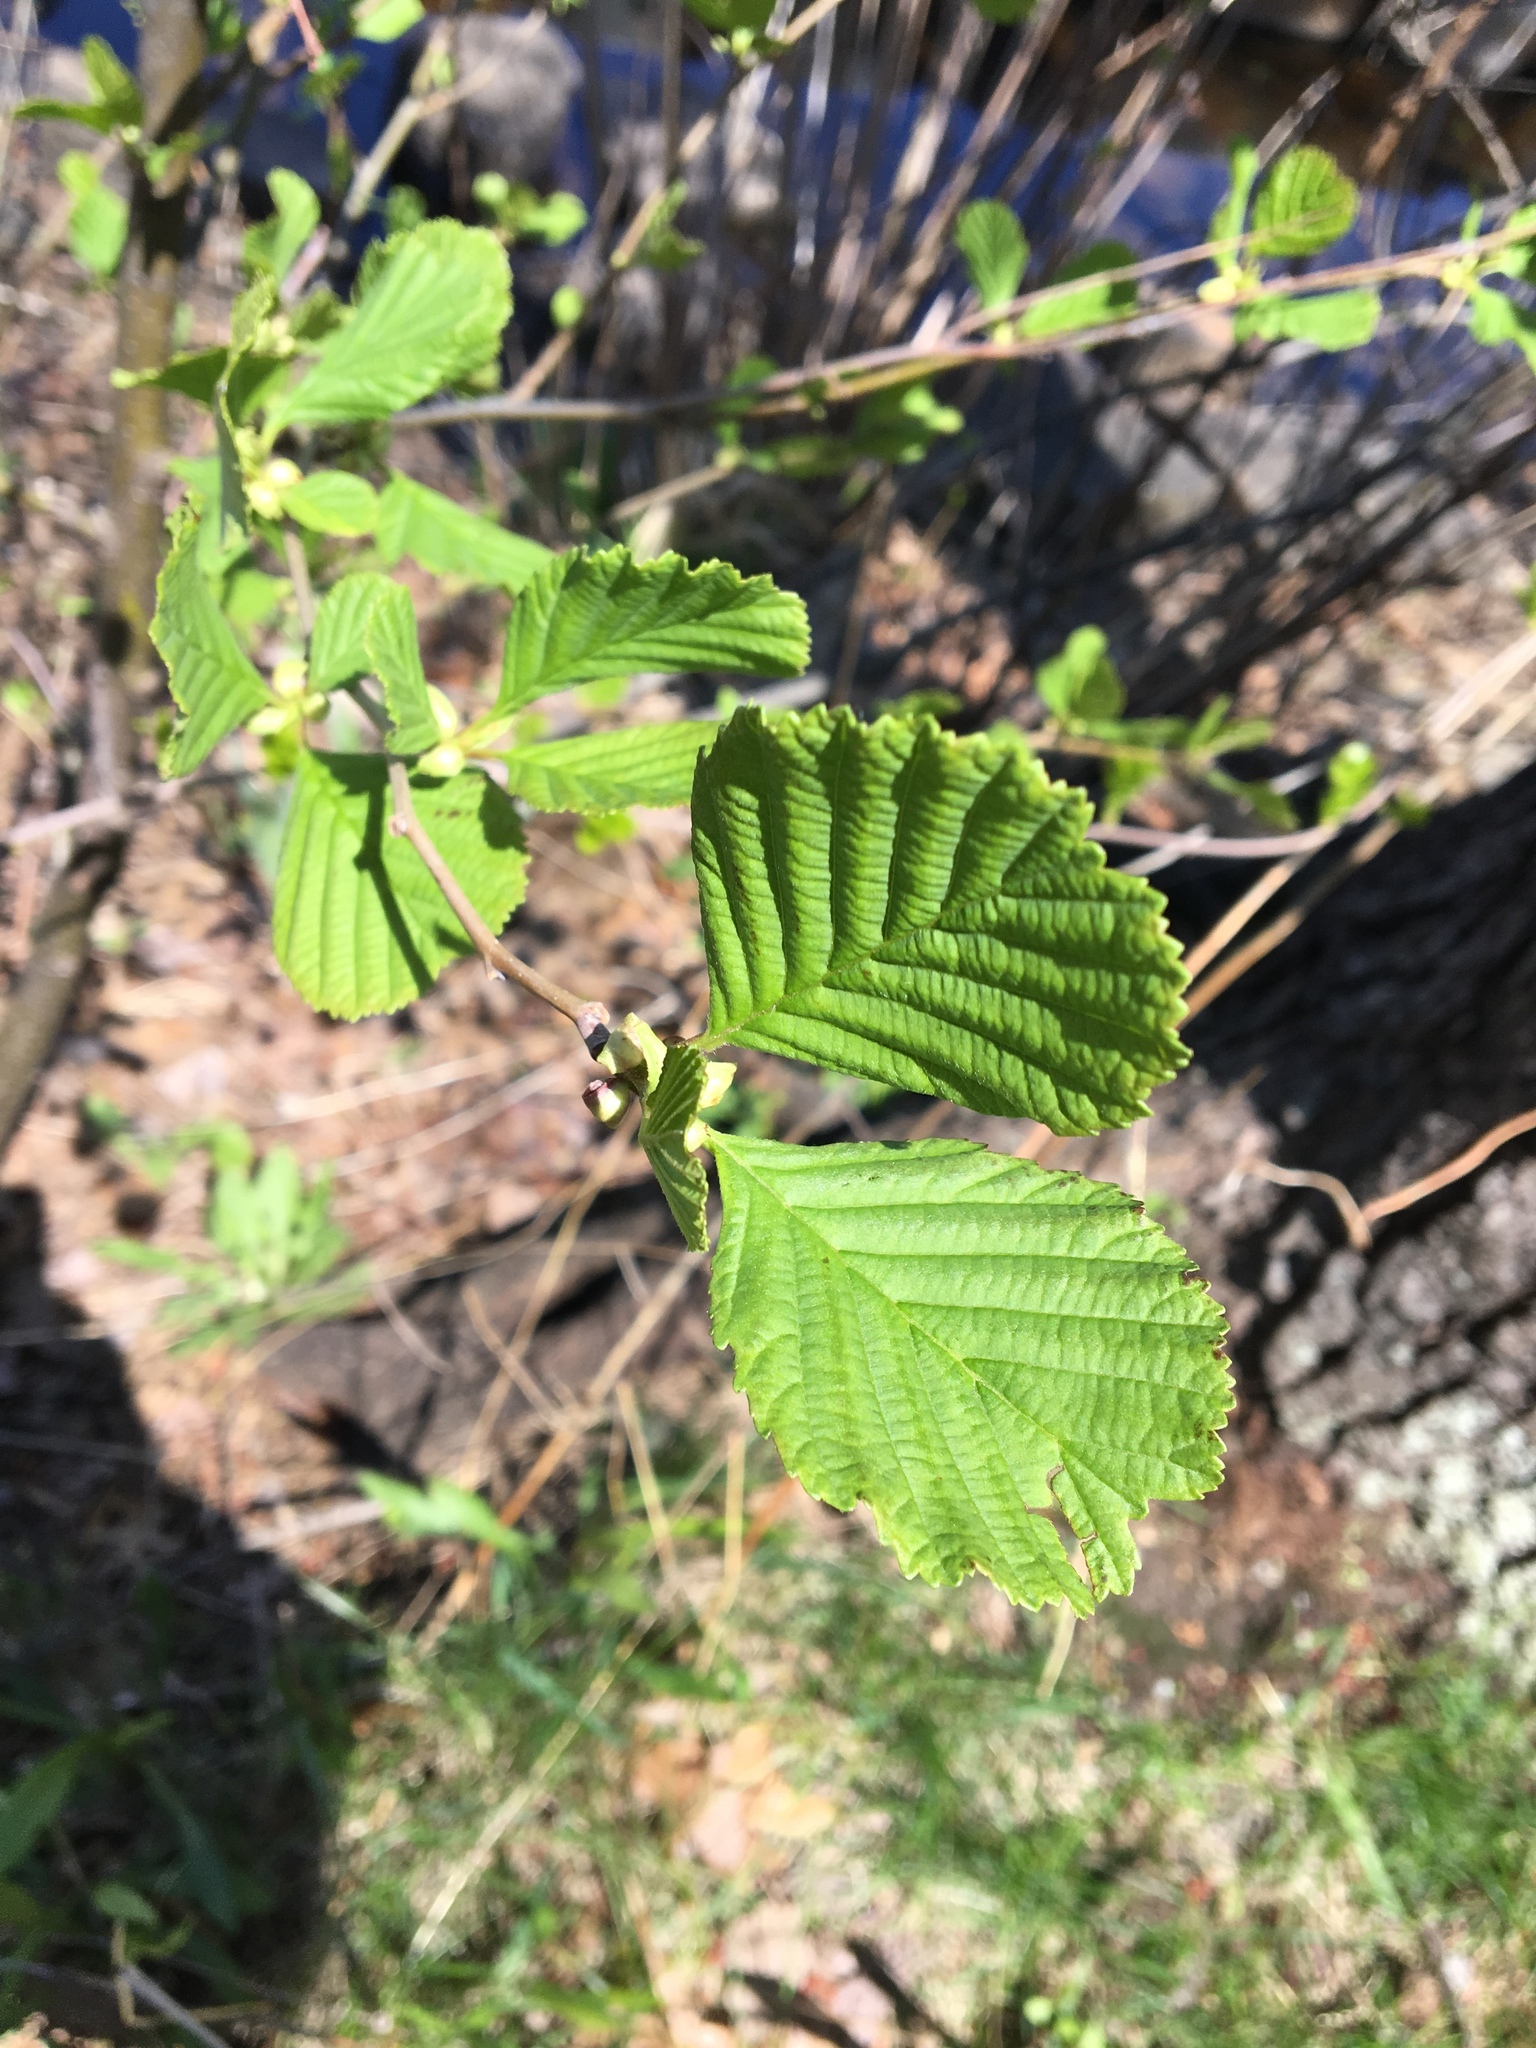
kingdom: Plantae
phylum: Tracheophyta
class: Magnoliopsida
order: Fagales
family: Betulaceae
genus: Alnus
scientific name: Alnus glutinosa
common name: Black alder
